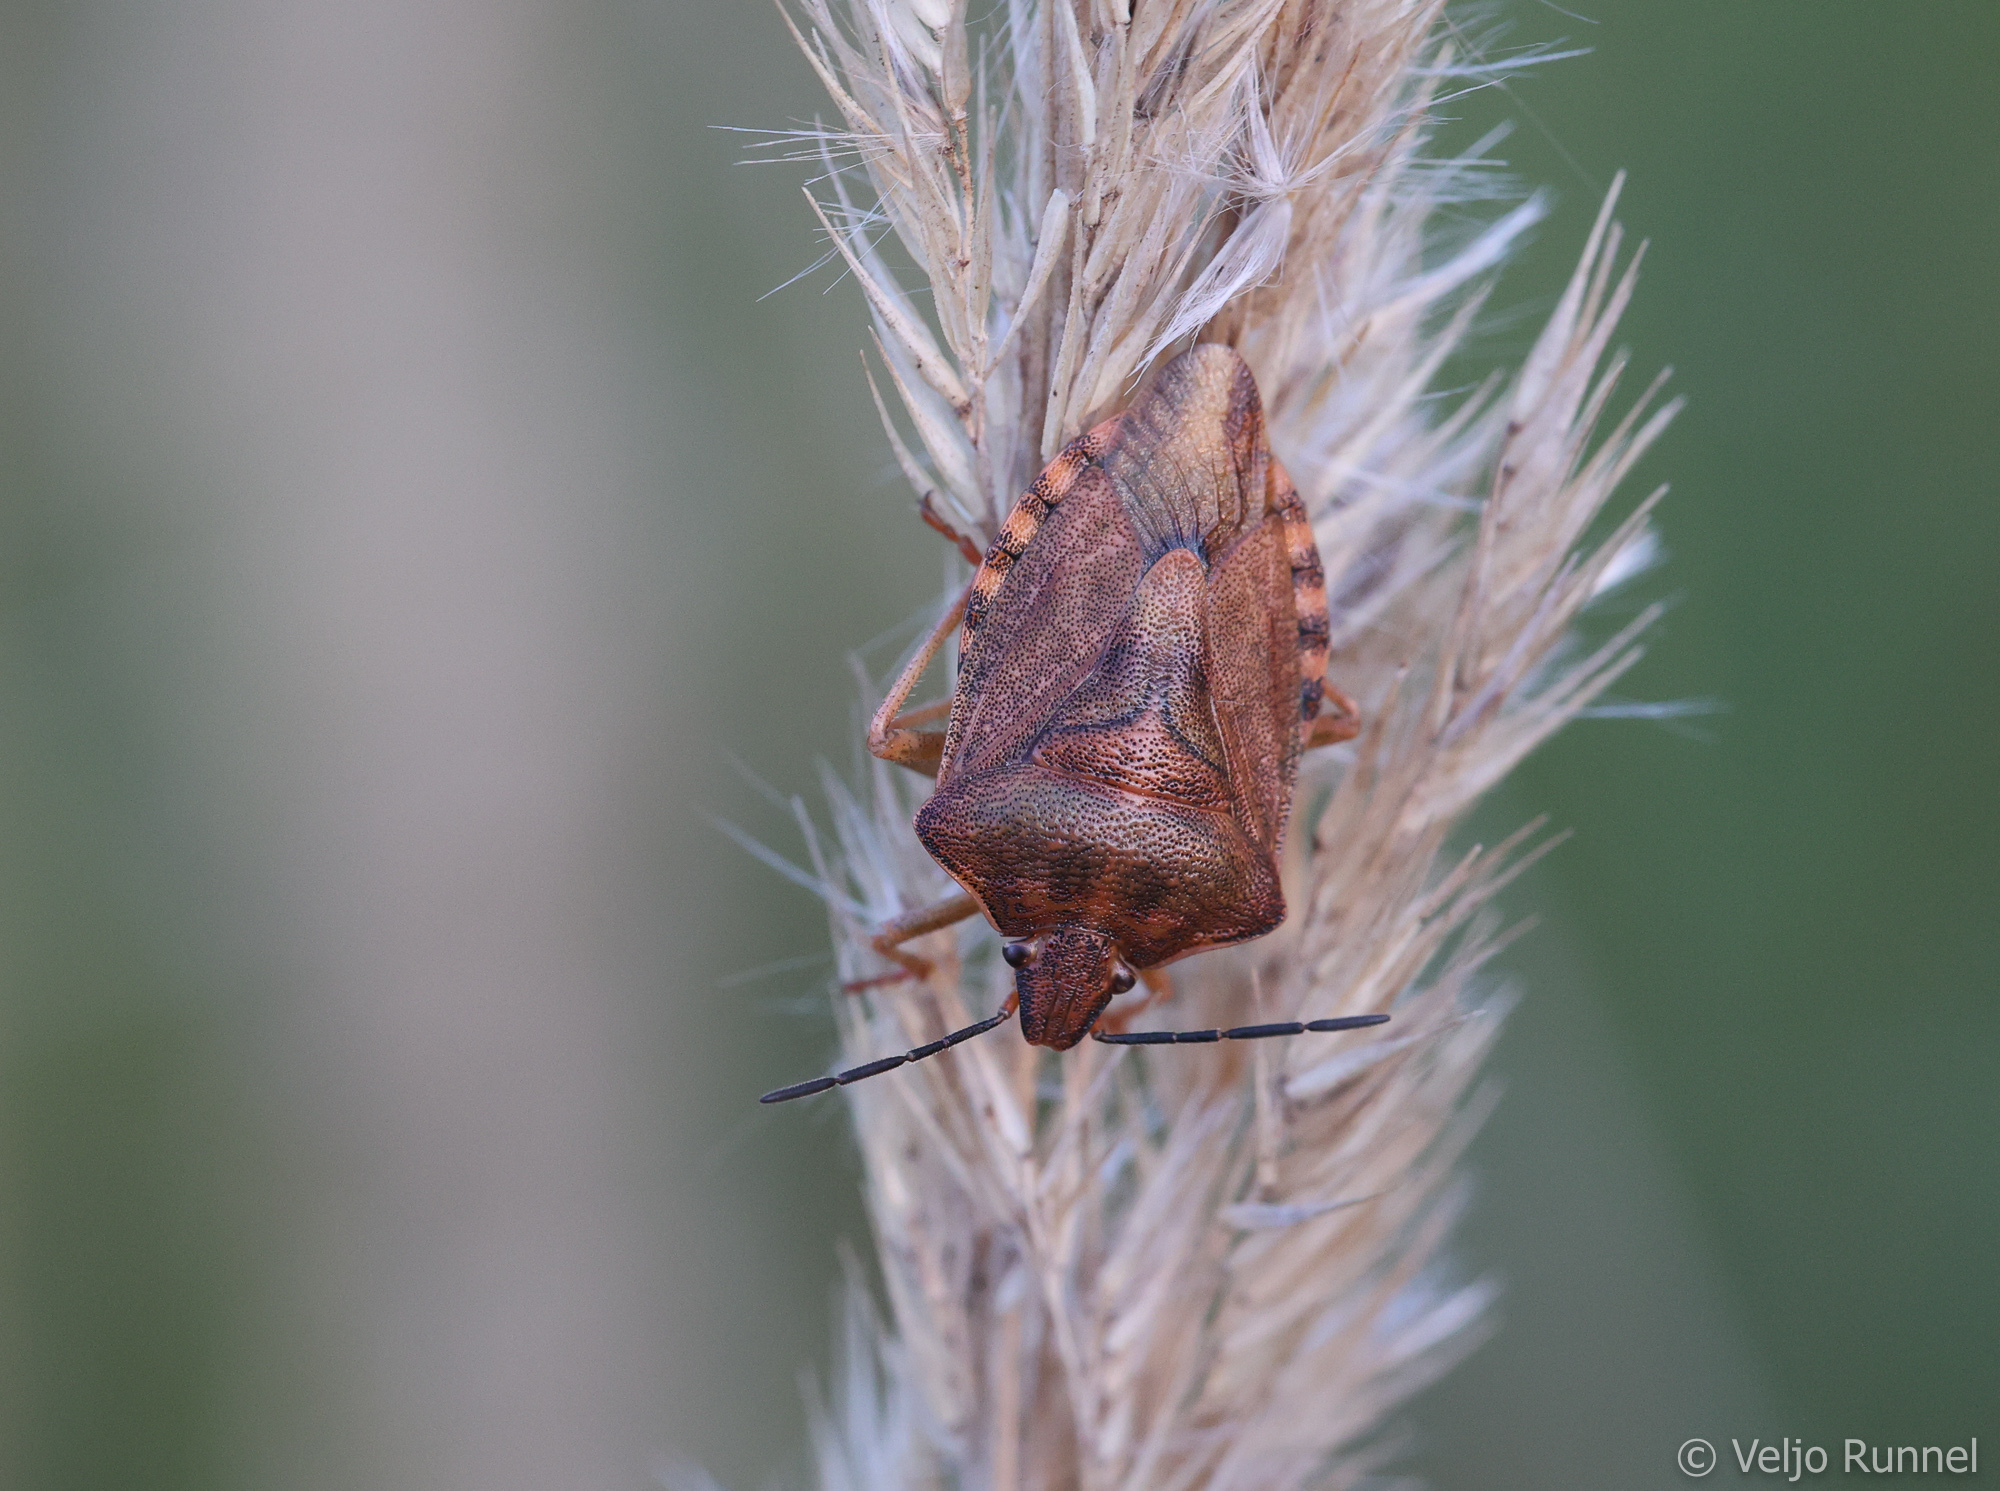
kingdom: Animalia
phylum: Arthropoda
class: Insecta
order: Hemiptera
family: Pentatomidae
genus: Carpocoris
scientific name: Carpocoris purpureipennis
